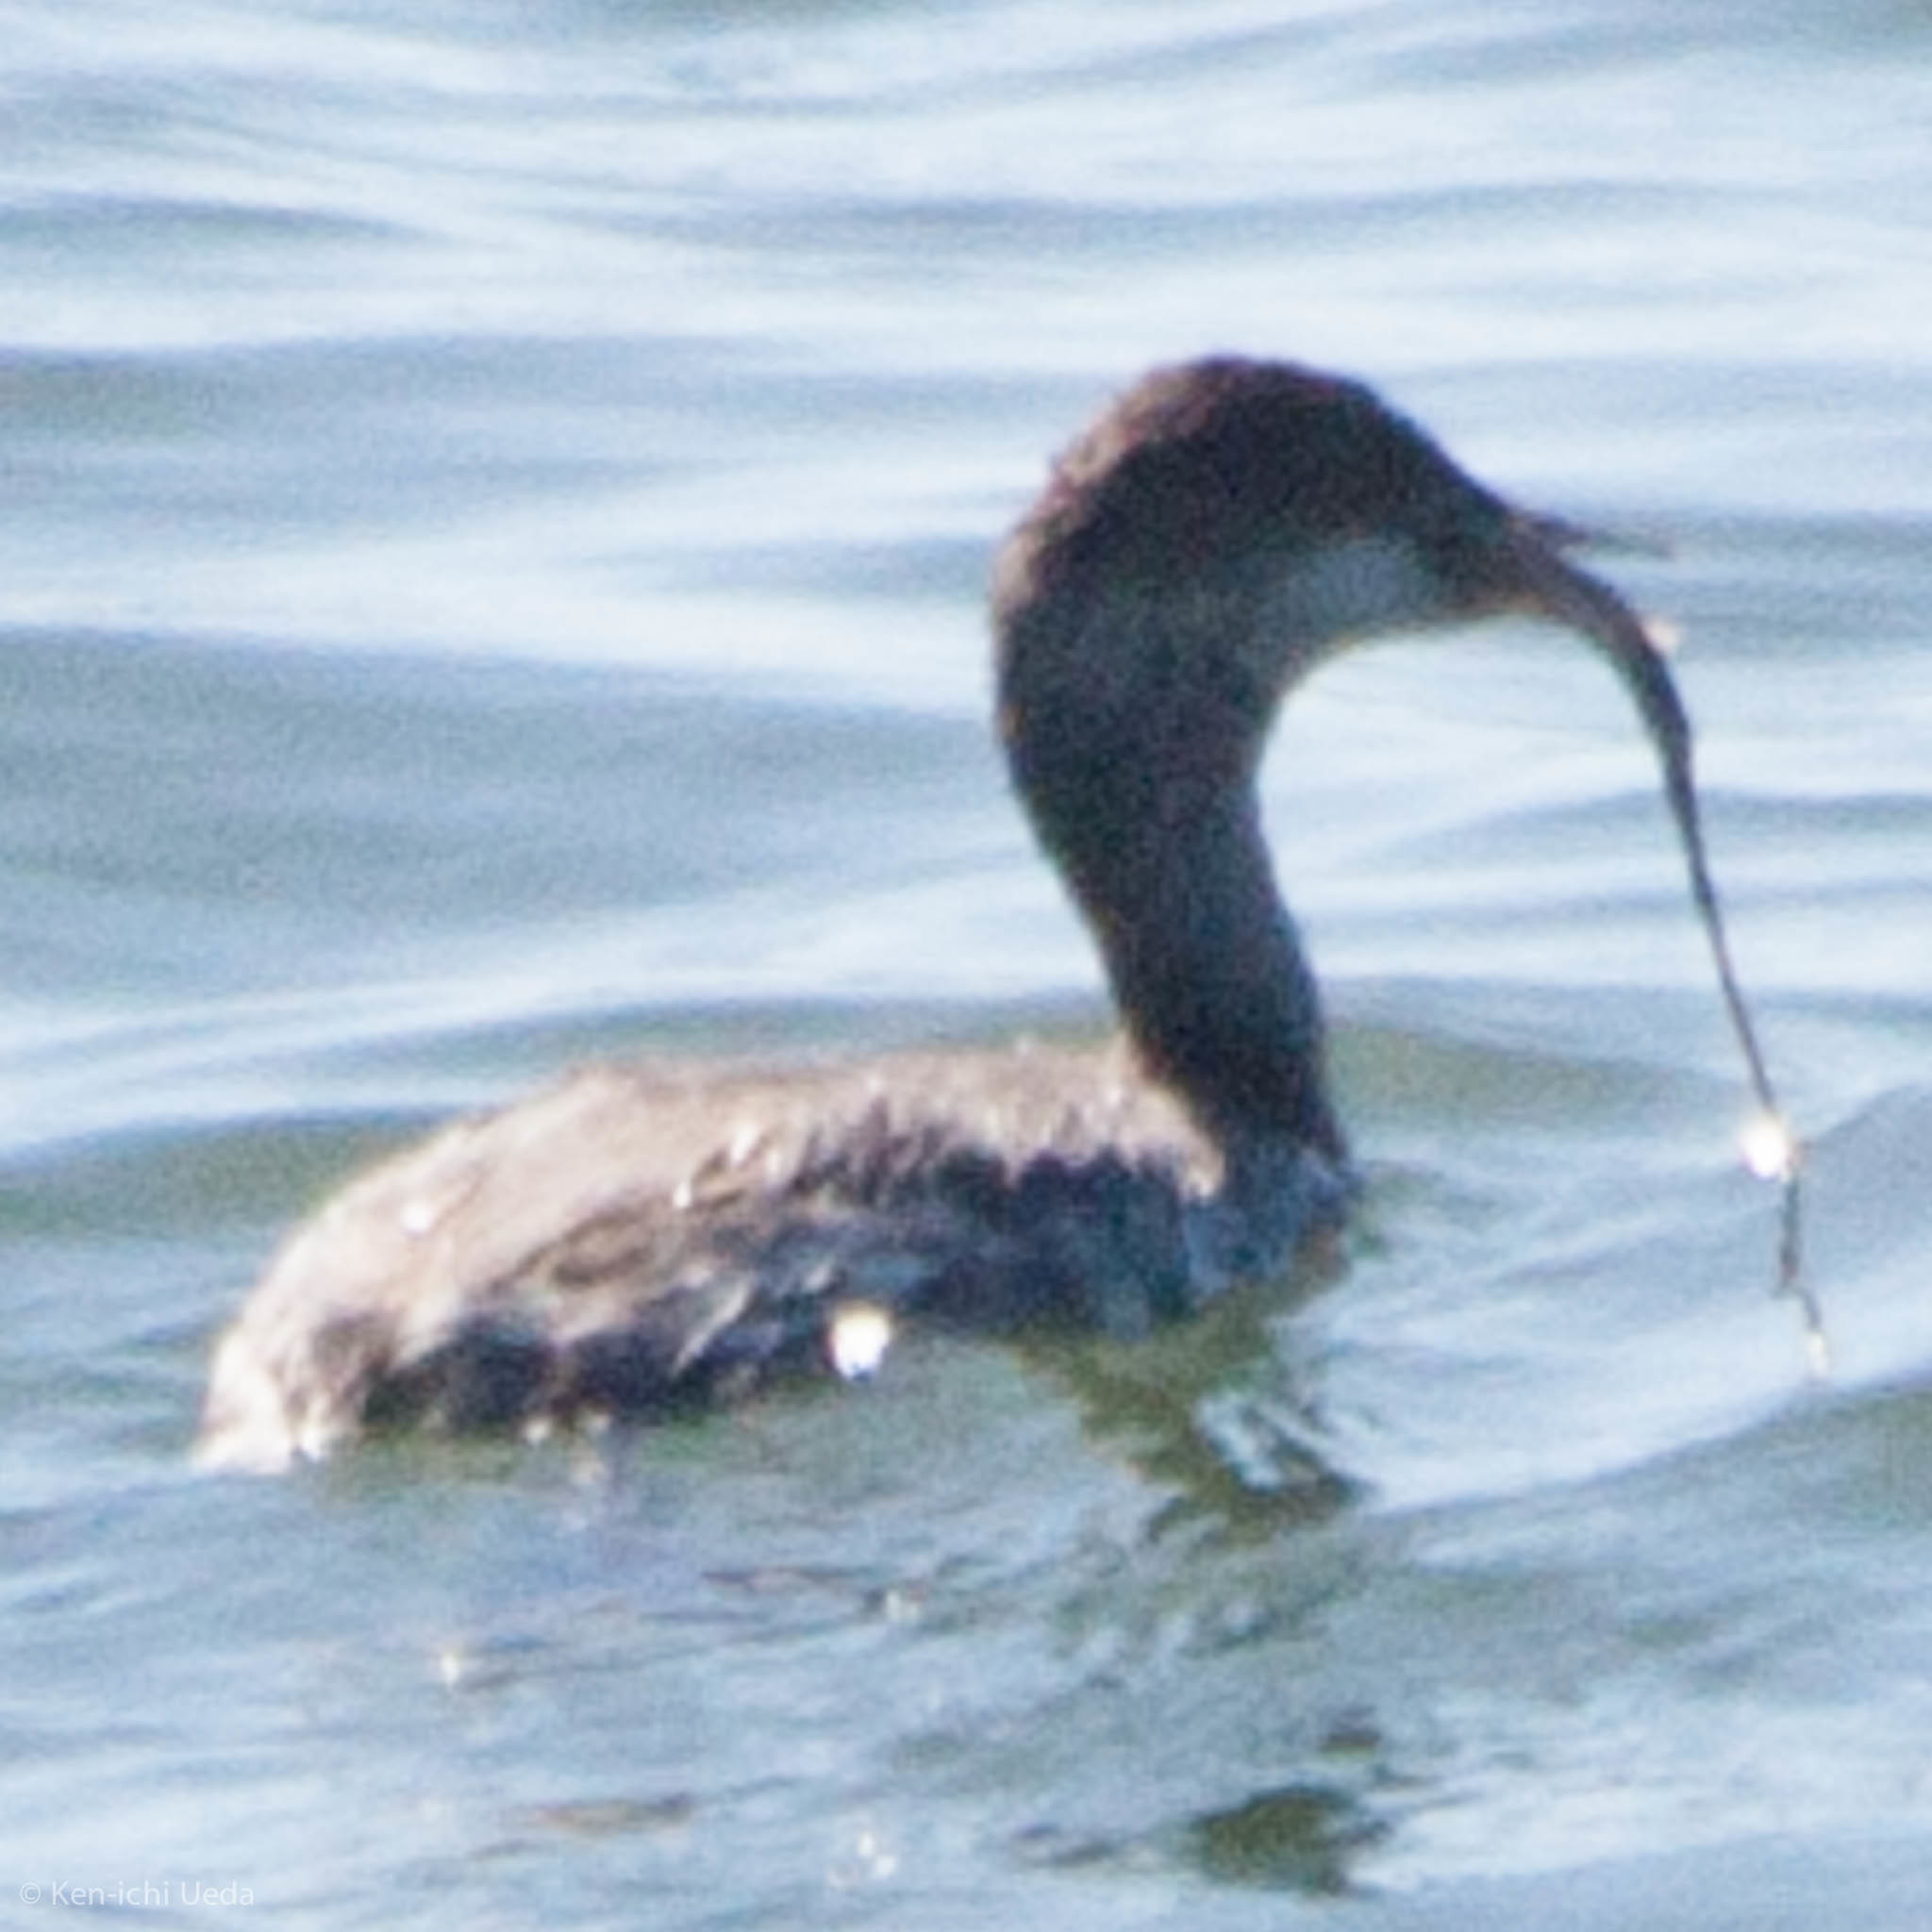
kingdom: Animalia
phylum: Chordata
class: Aves
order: Podicipediformes
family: Podicipedidae
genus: Podiceps
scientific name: Podiceps nigricollis
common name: Black-necked grebe
